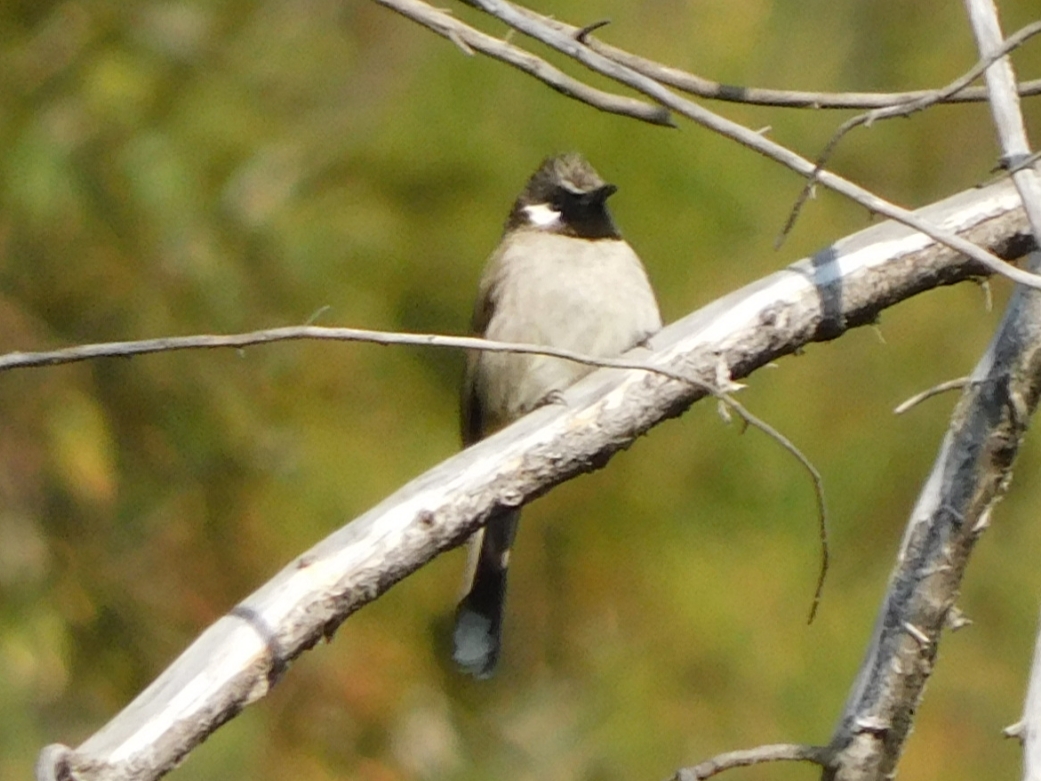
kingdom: Animalia
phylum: Chordata
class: Aves
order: Passeriformes
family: Pycnonotidae
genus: Pycnonotus
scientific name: Pycnonotus leucogenys
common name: Himalayan bulbul
